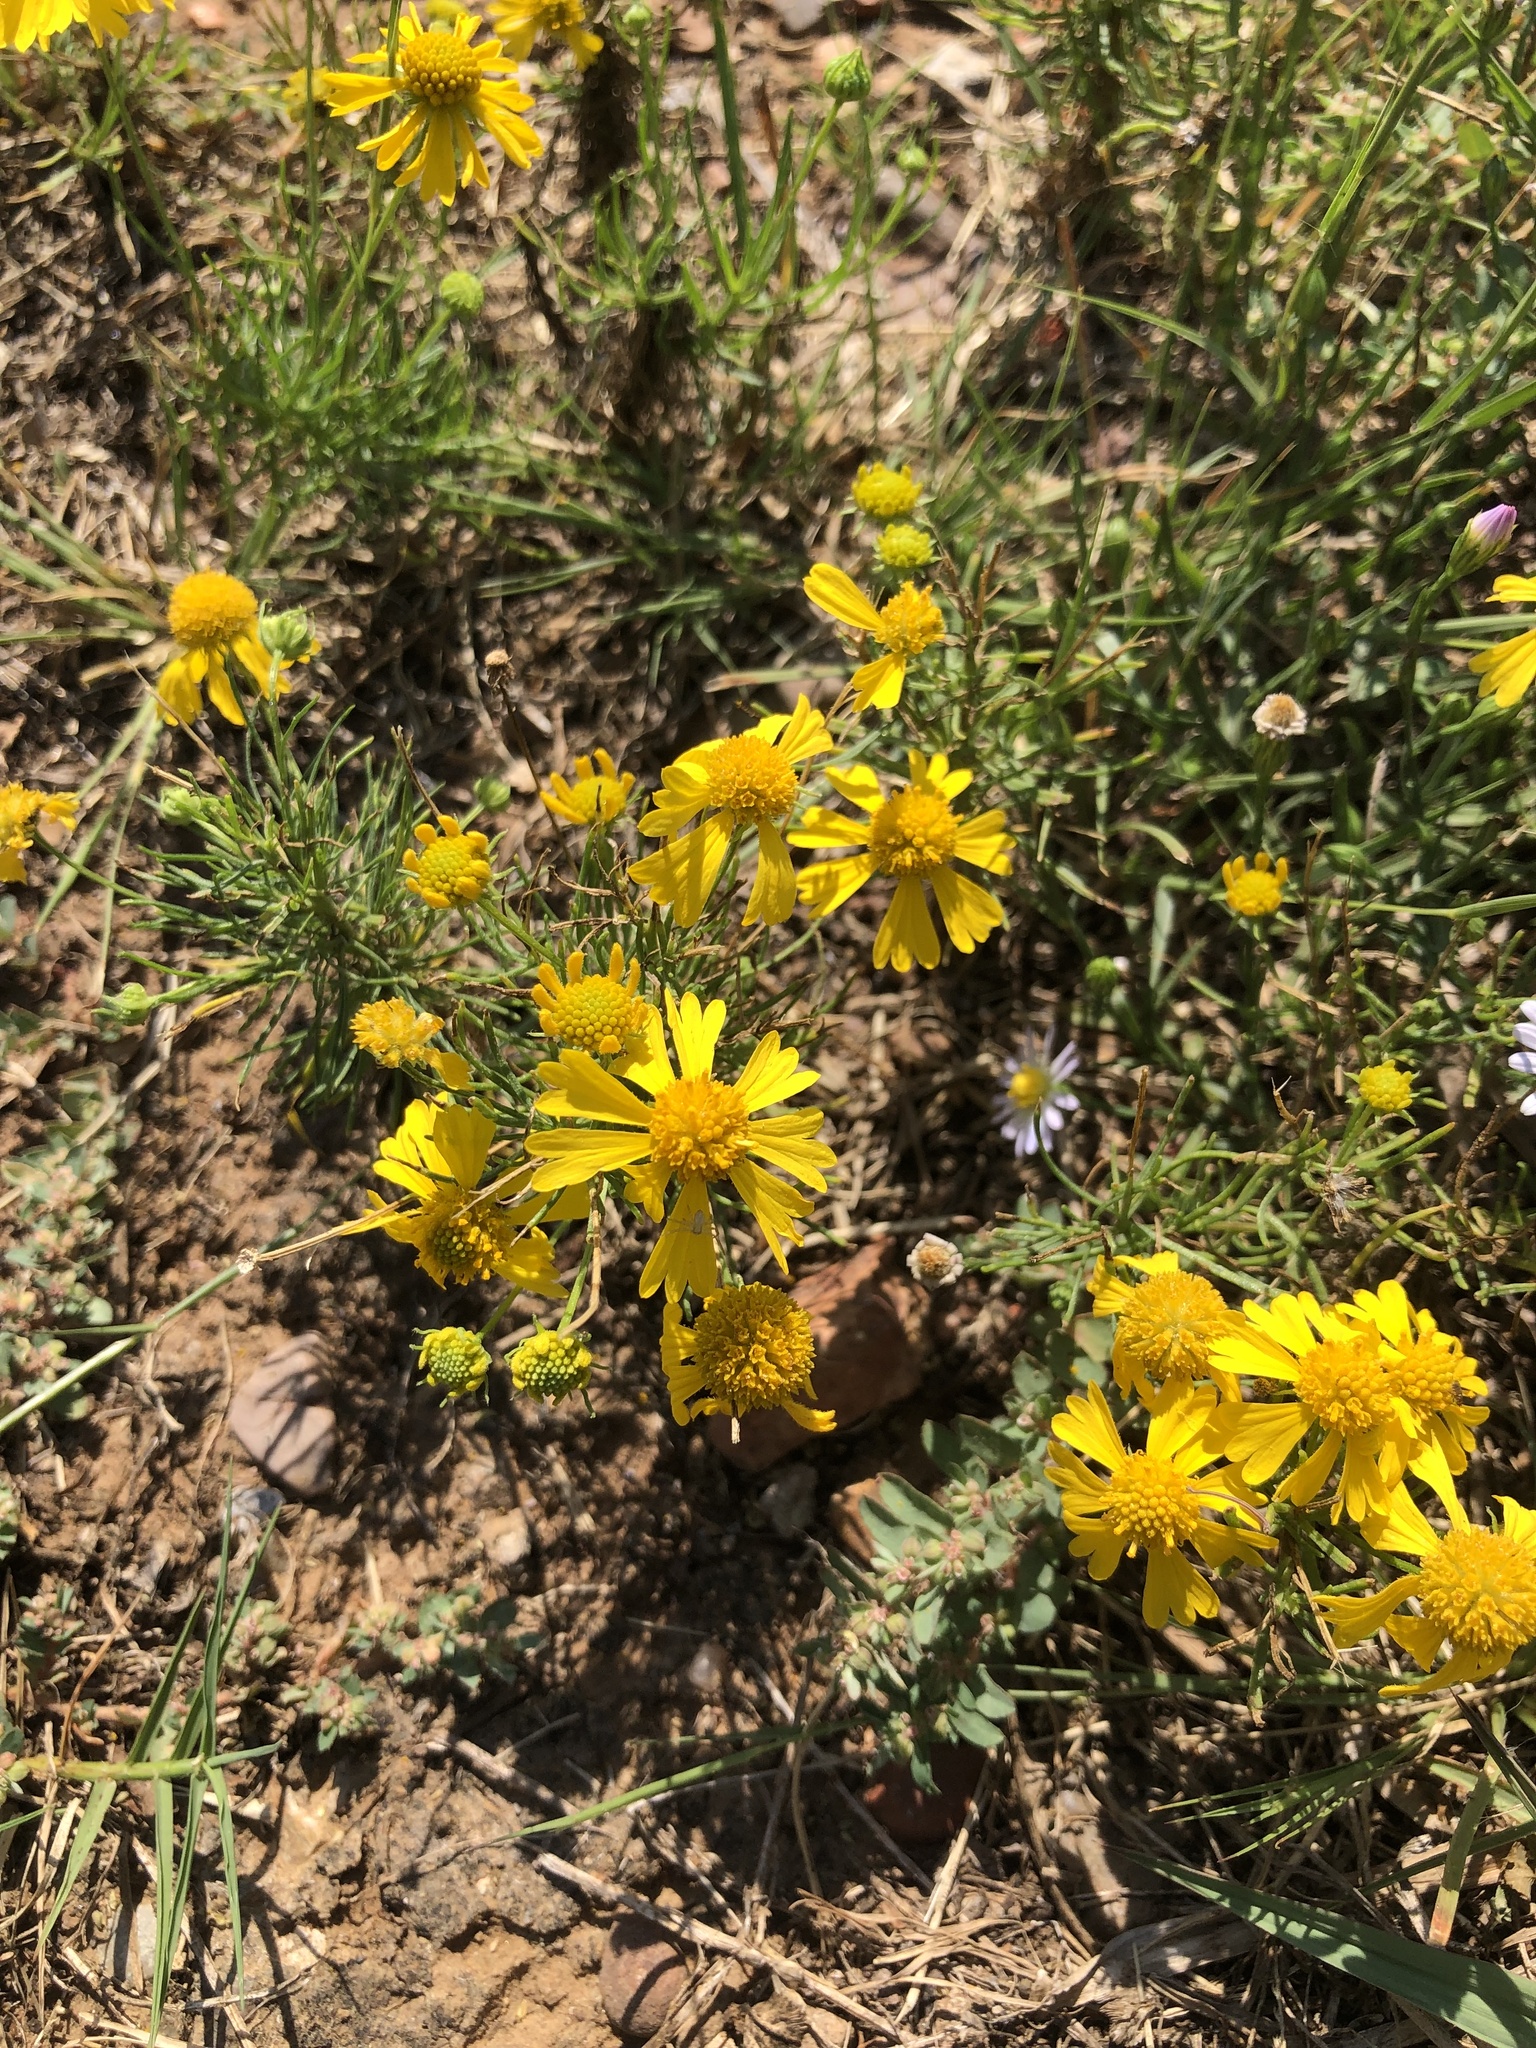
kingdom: Plantae
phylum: Tracheophyta
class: Magnoliopsida
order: Asterales
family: Asteraceae
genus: Helenium
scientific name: Helenium amarum
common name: Bitter sneezeweed
